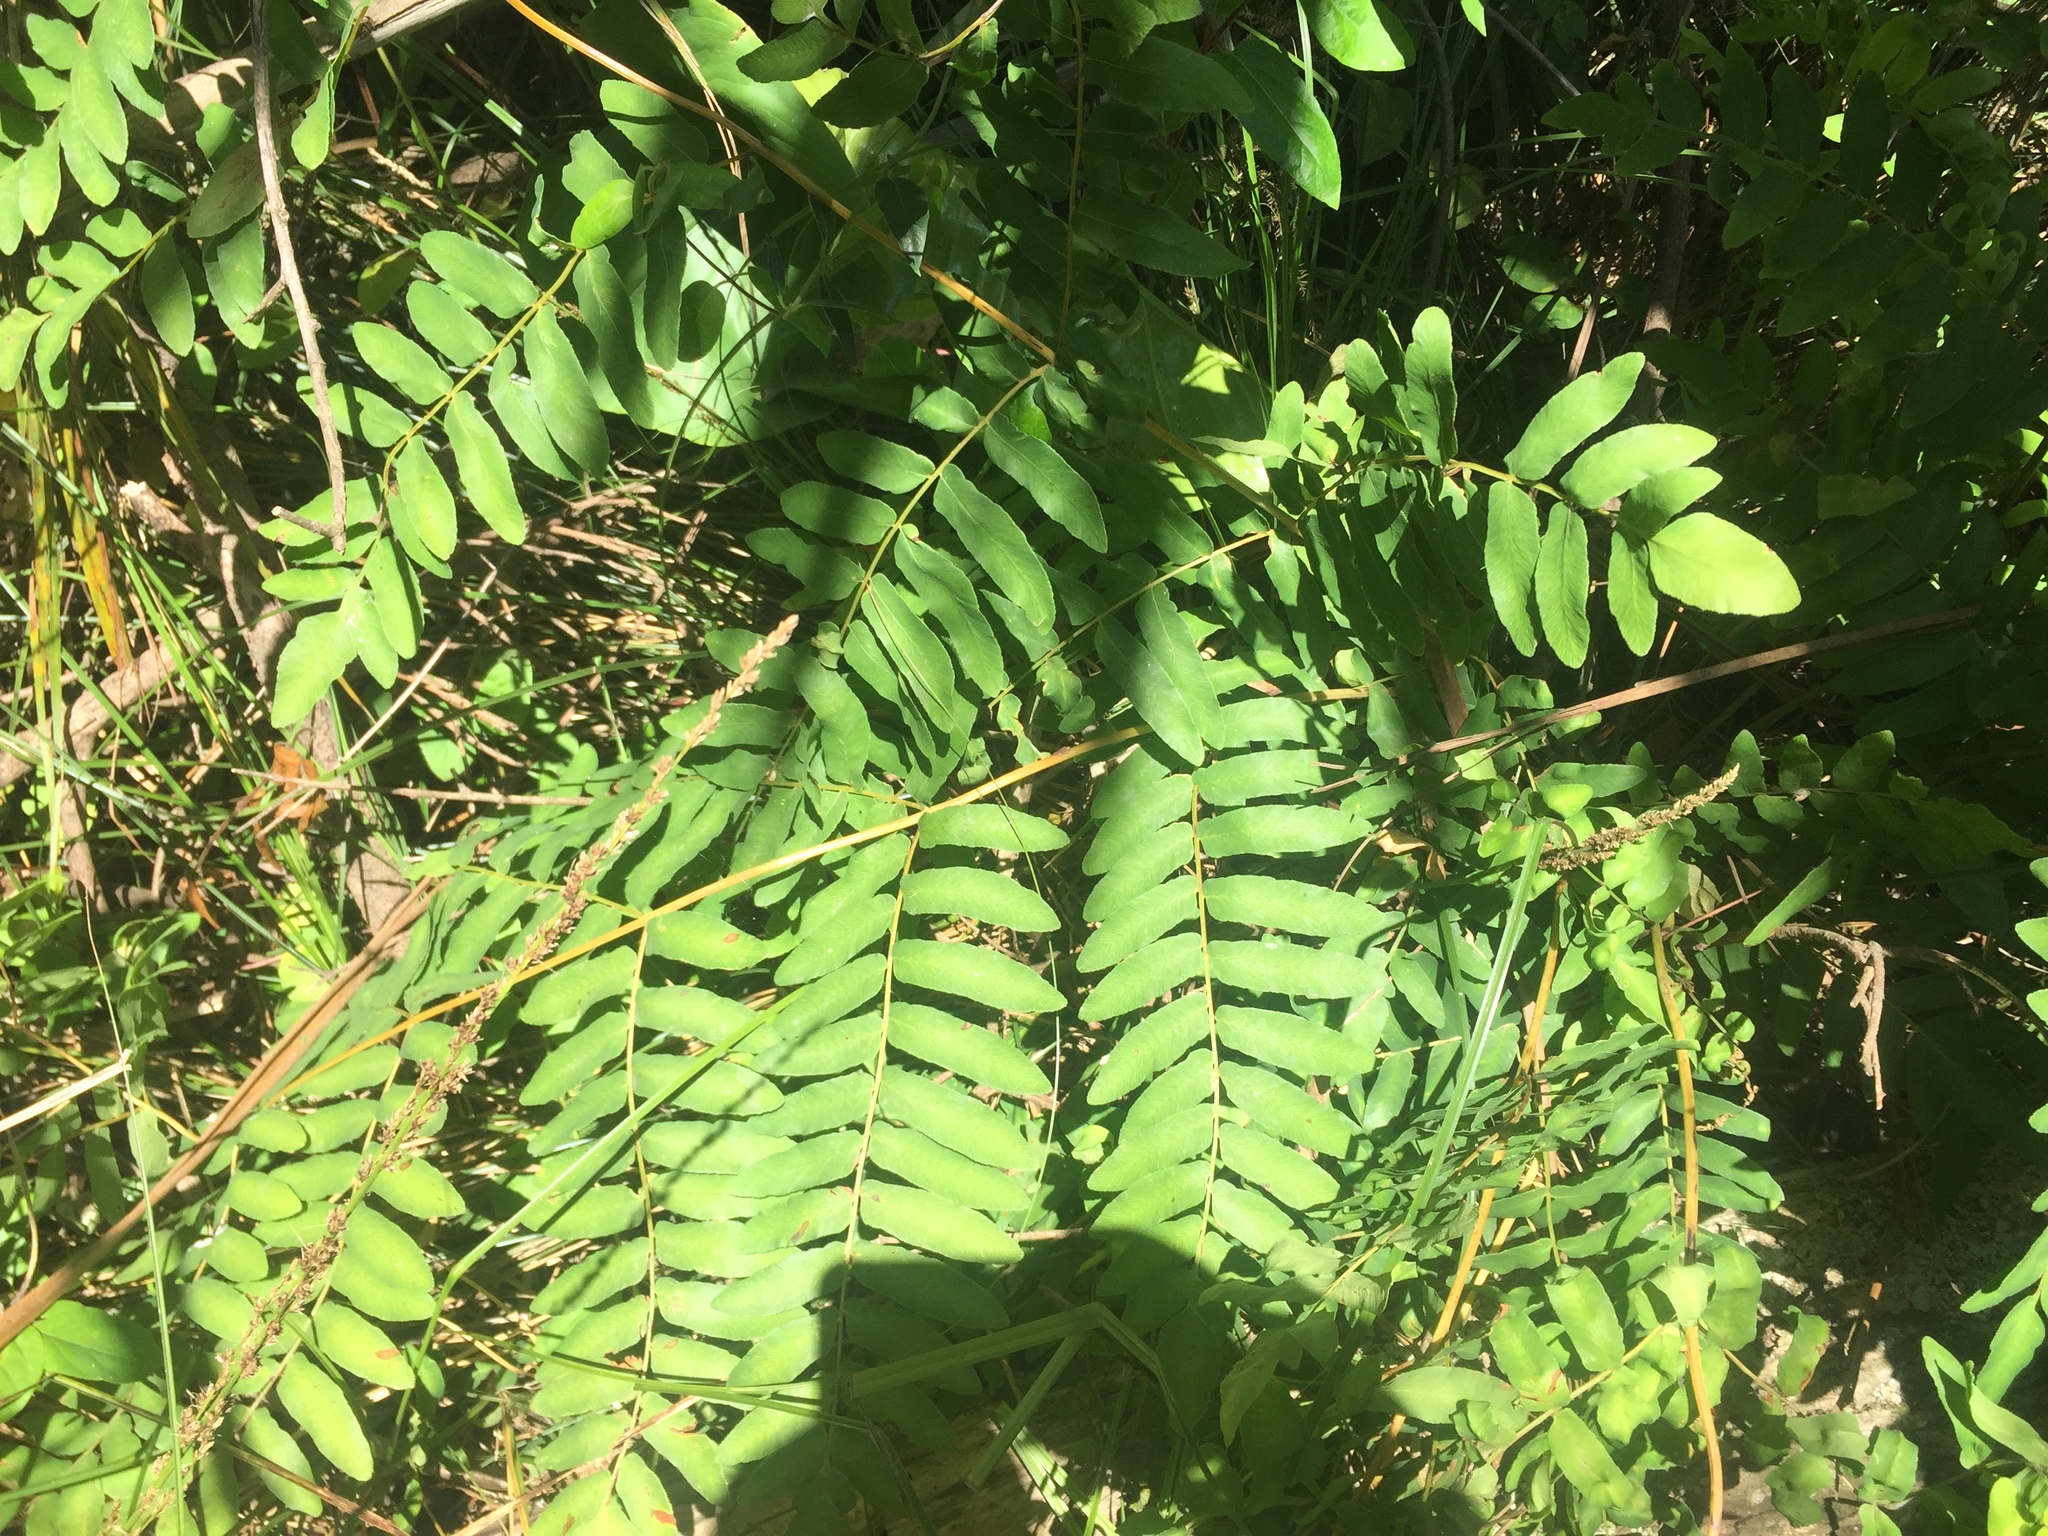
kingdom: Plantae
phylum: Tracheophyta
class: Polypodiopsida
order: Osmundales
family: Osmundaceae
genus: Osmunda
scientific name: Osmunda regalis
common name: Royal fern
